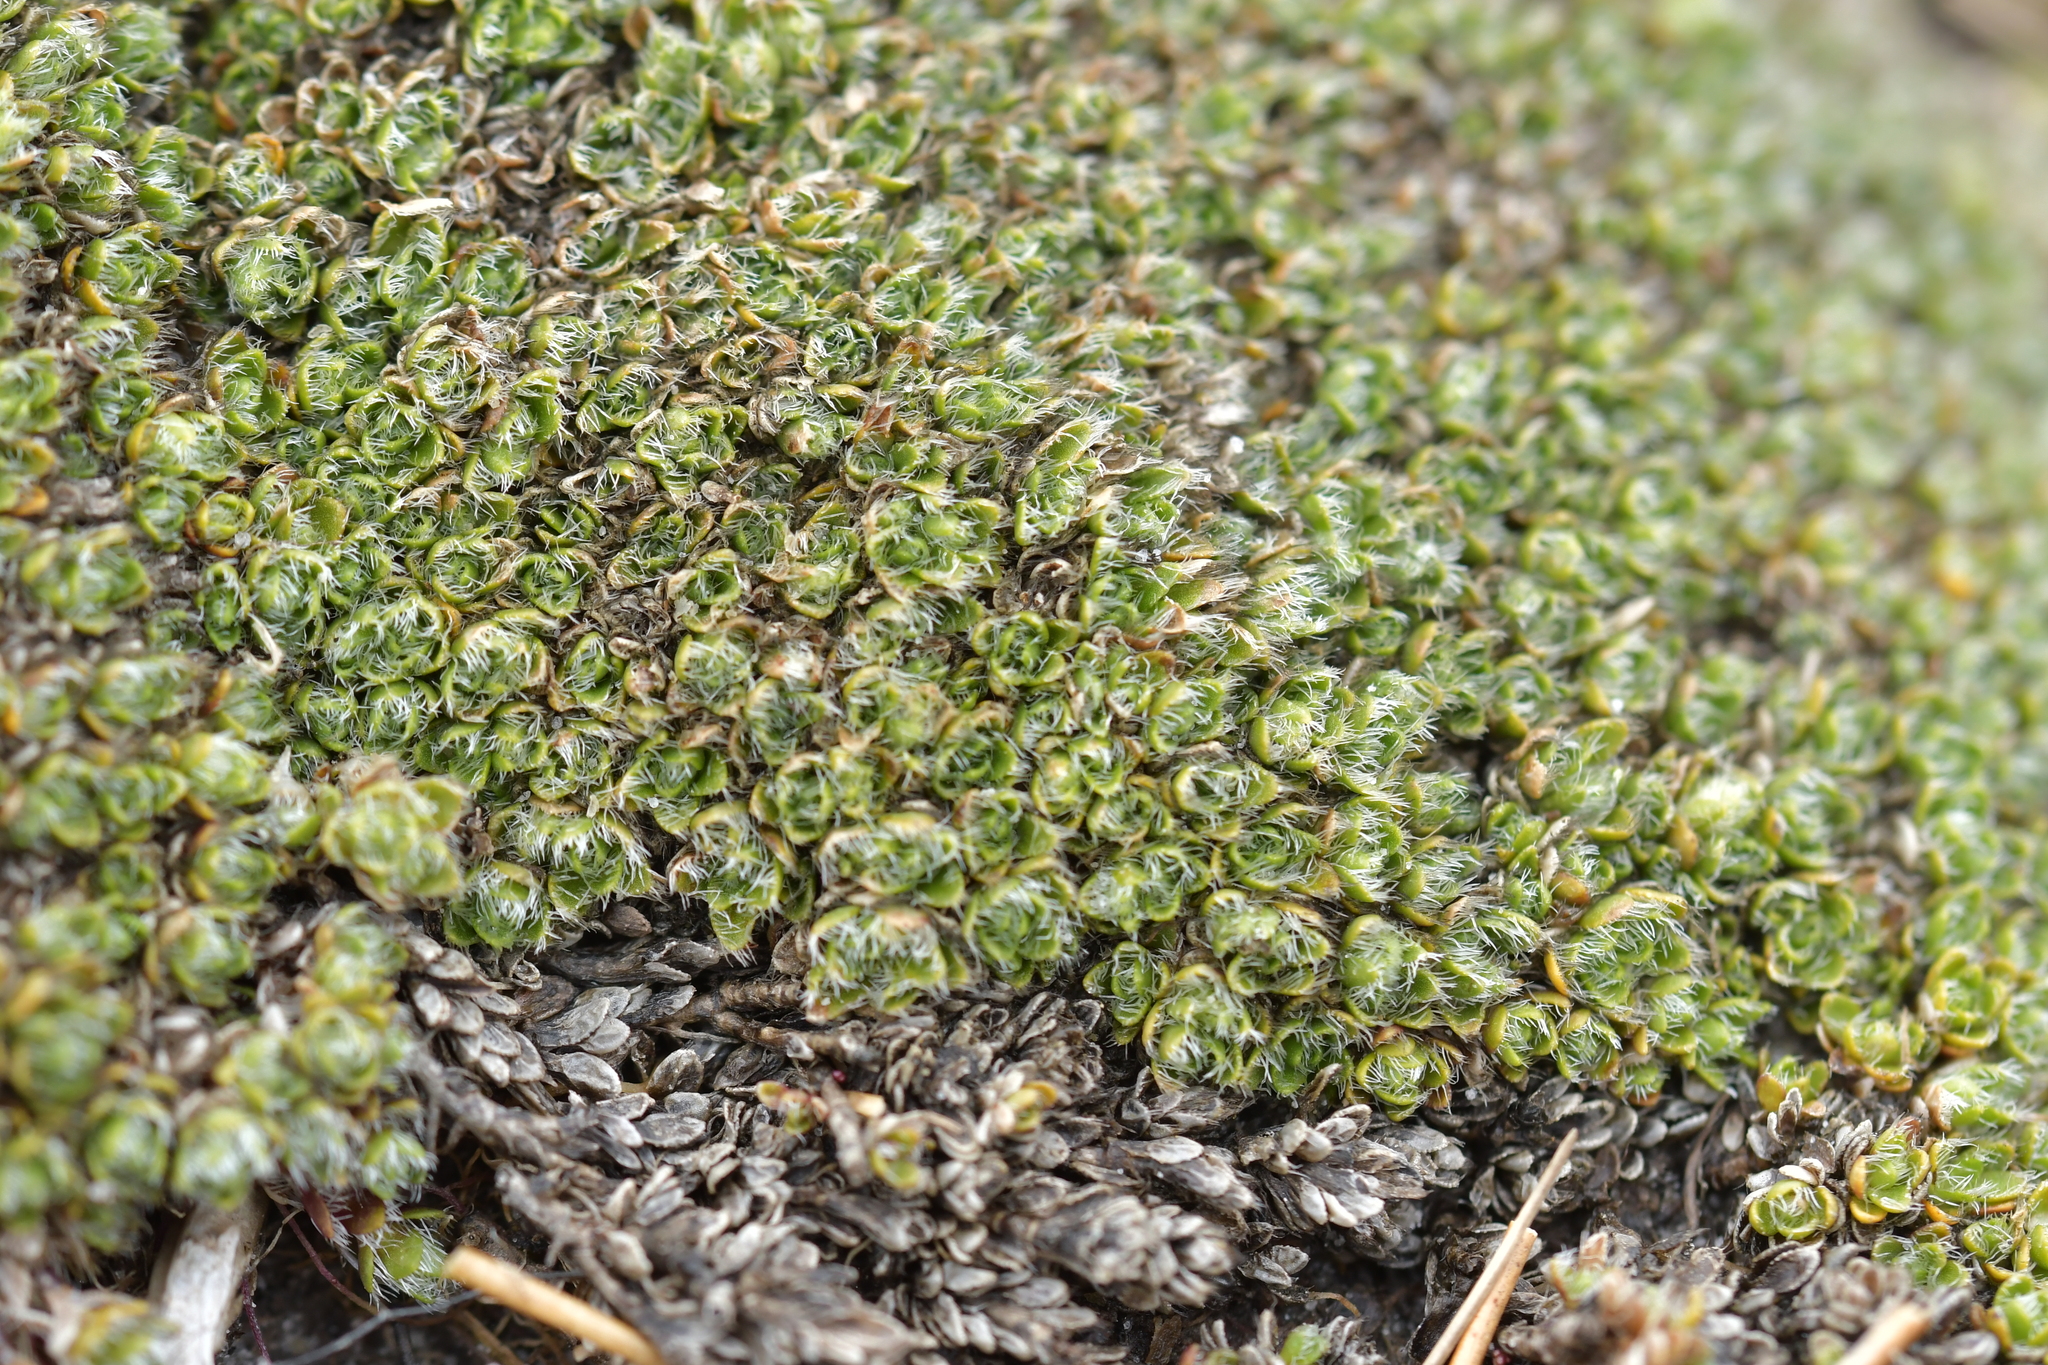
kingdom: Plantae
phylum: Tracheophyta
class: Magnoliopsida
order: Lamiales
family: Plantaginaceae
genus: Veronica
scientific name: Veronica pulvinaris
